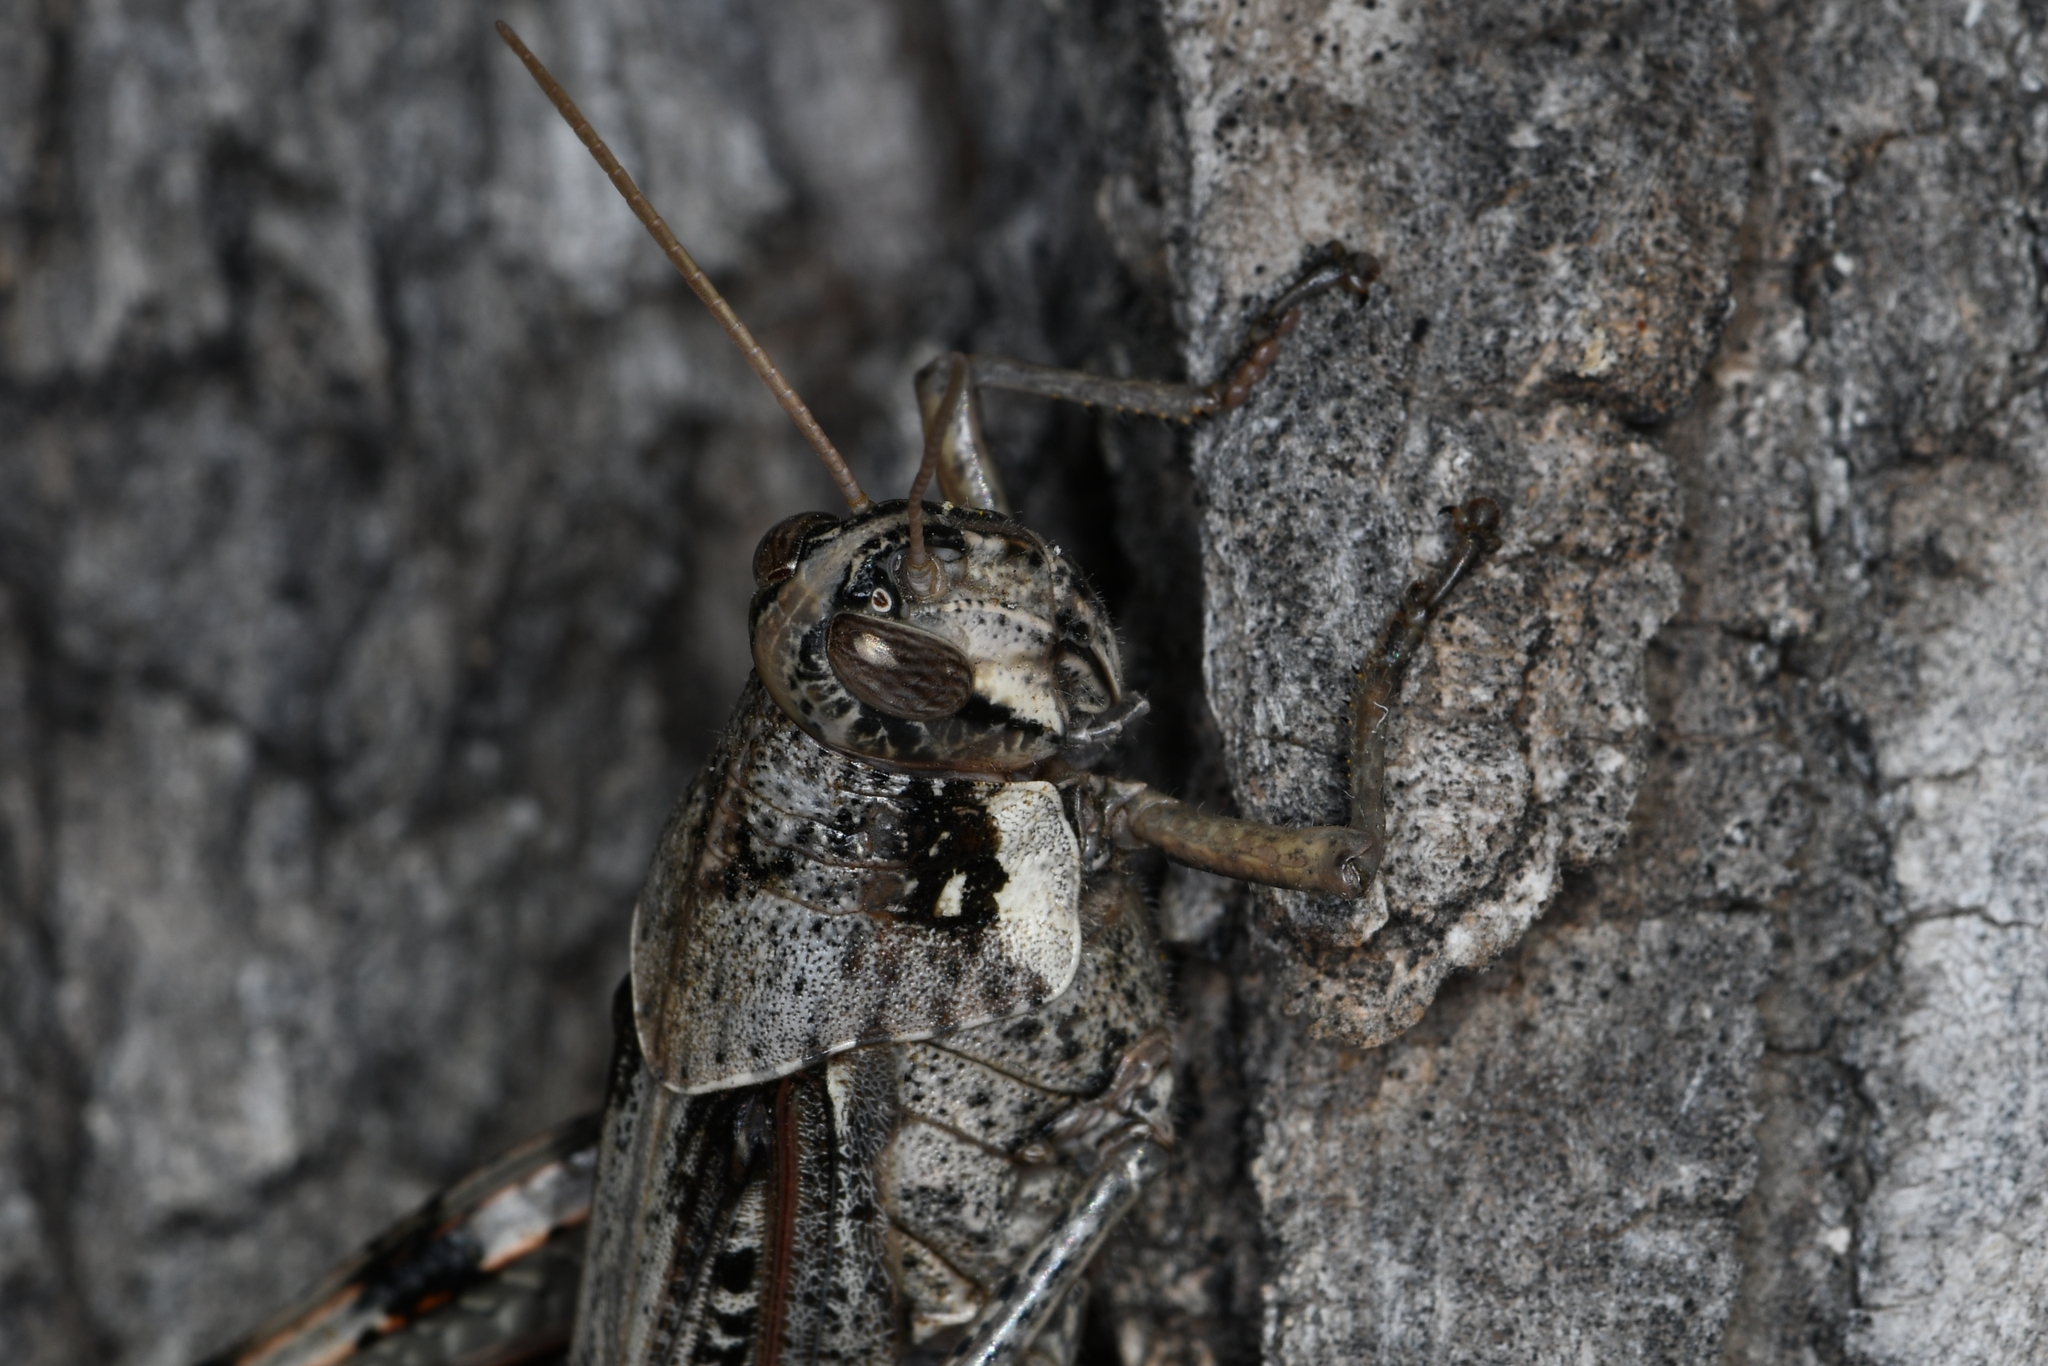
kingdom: Animalia
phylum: Arthropoda
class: Insecta
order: Orthoptera
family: Acrididae
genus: Schistocerca
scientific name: Schistocerca nitens
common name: Vagrant grasshopper
